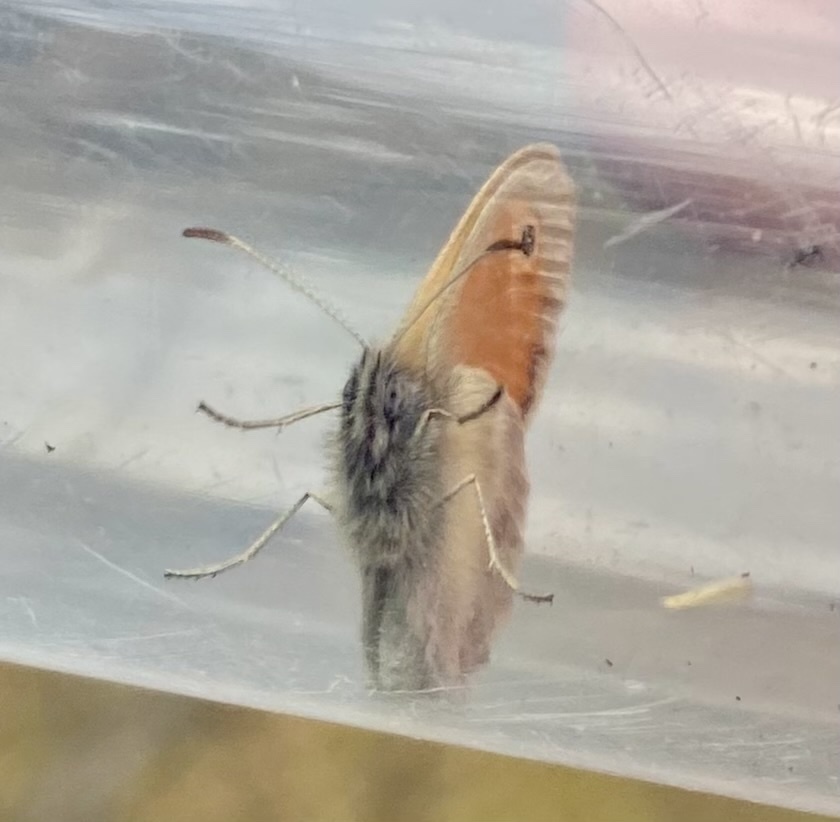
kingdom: Animalia
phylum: Arthropoda
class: Insecta
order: Lepidoptera
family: Nymphalidae
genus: Coenonympha
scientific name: Coenonympha pamphilus
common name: Small heath
